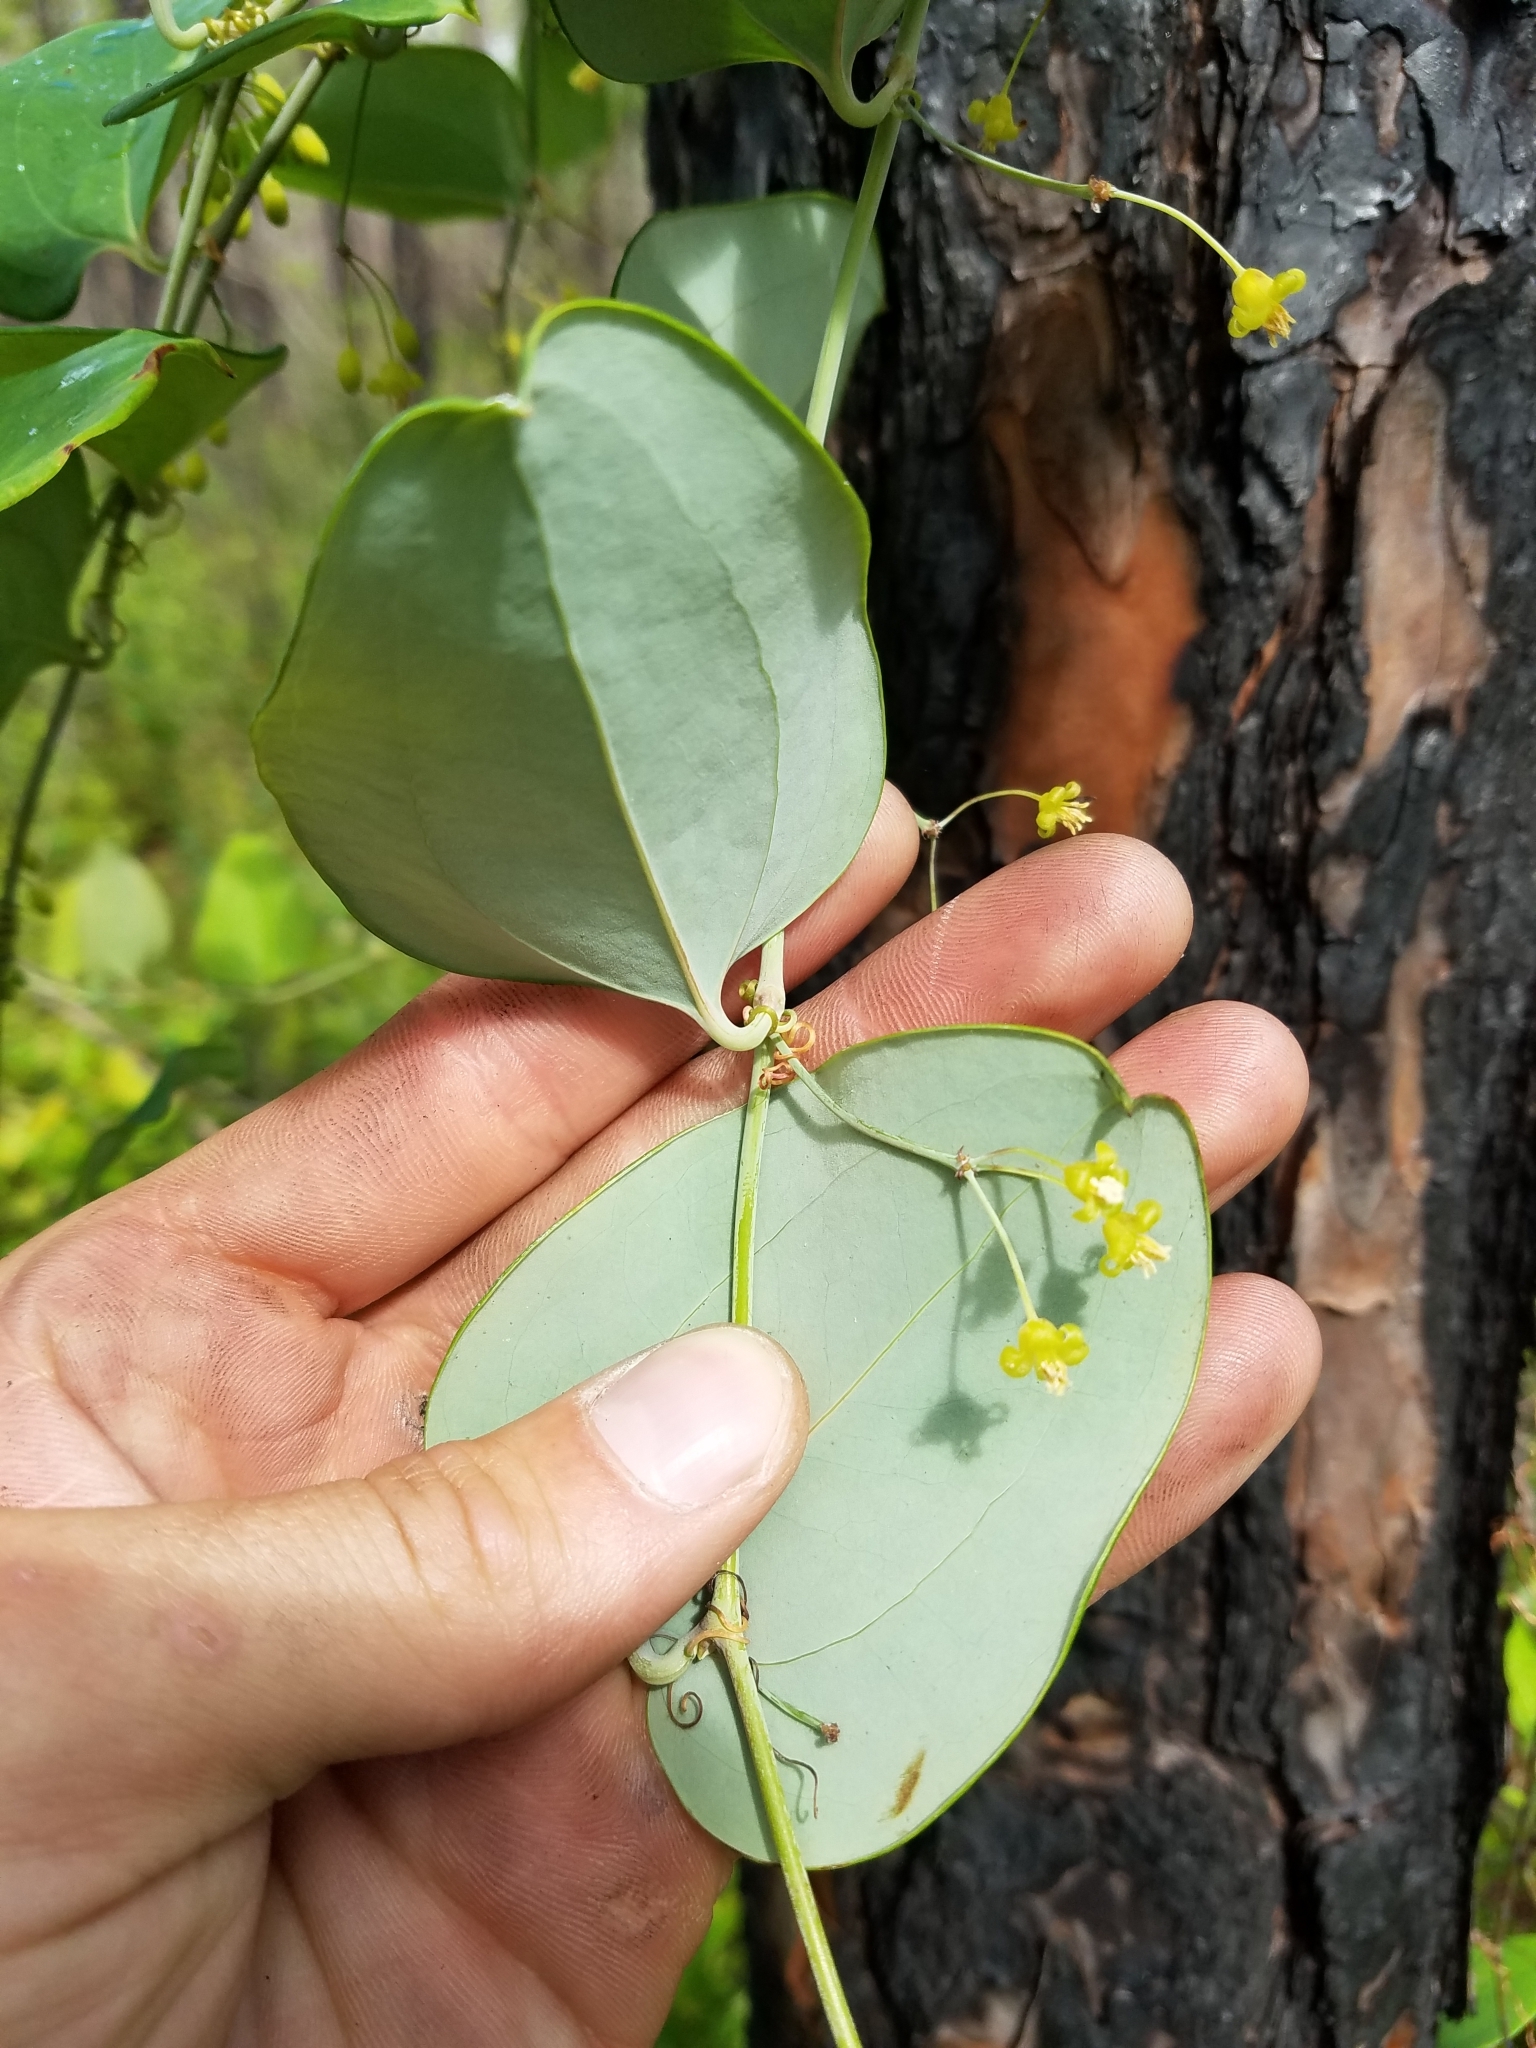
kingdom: Plantae
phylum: Tracheophyta
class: Liliopsida
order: Liliales
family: Smilacaceae
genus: Smilax
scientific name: Smilax glauca
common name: Cat greenbrier
